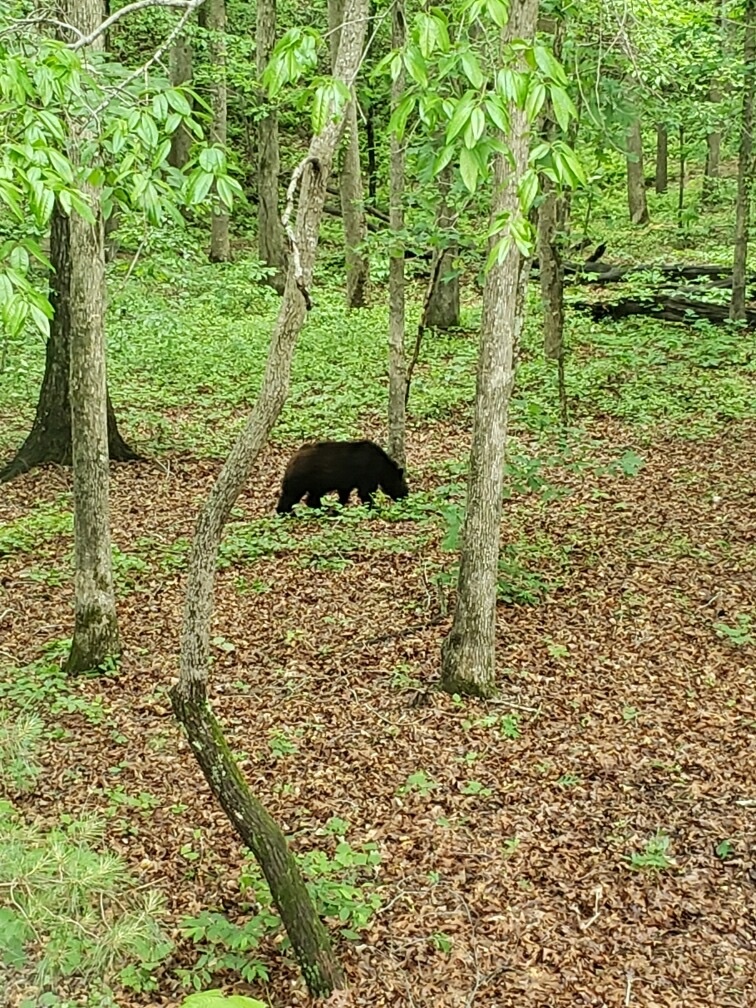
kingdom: Animalia
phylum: Chordata
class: Mammalia
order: Carnivora
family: Ursidae
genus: Ursus
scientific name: Ursus americanus
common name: American black bear
